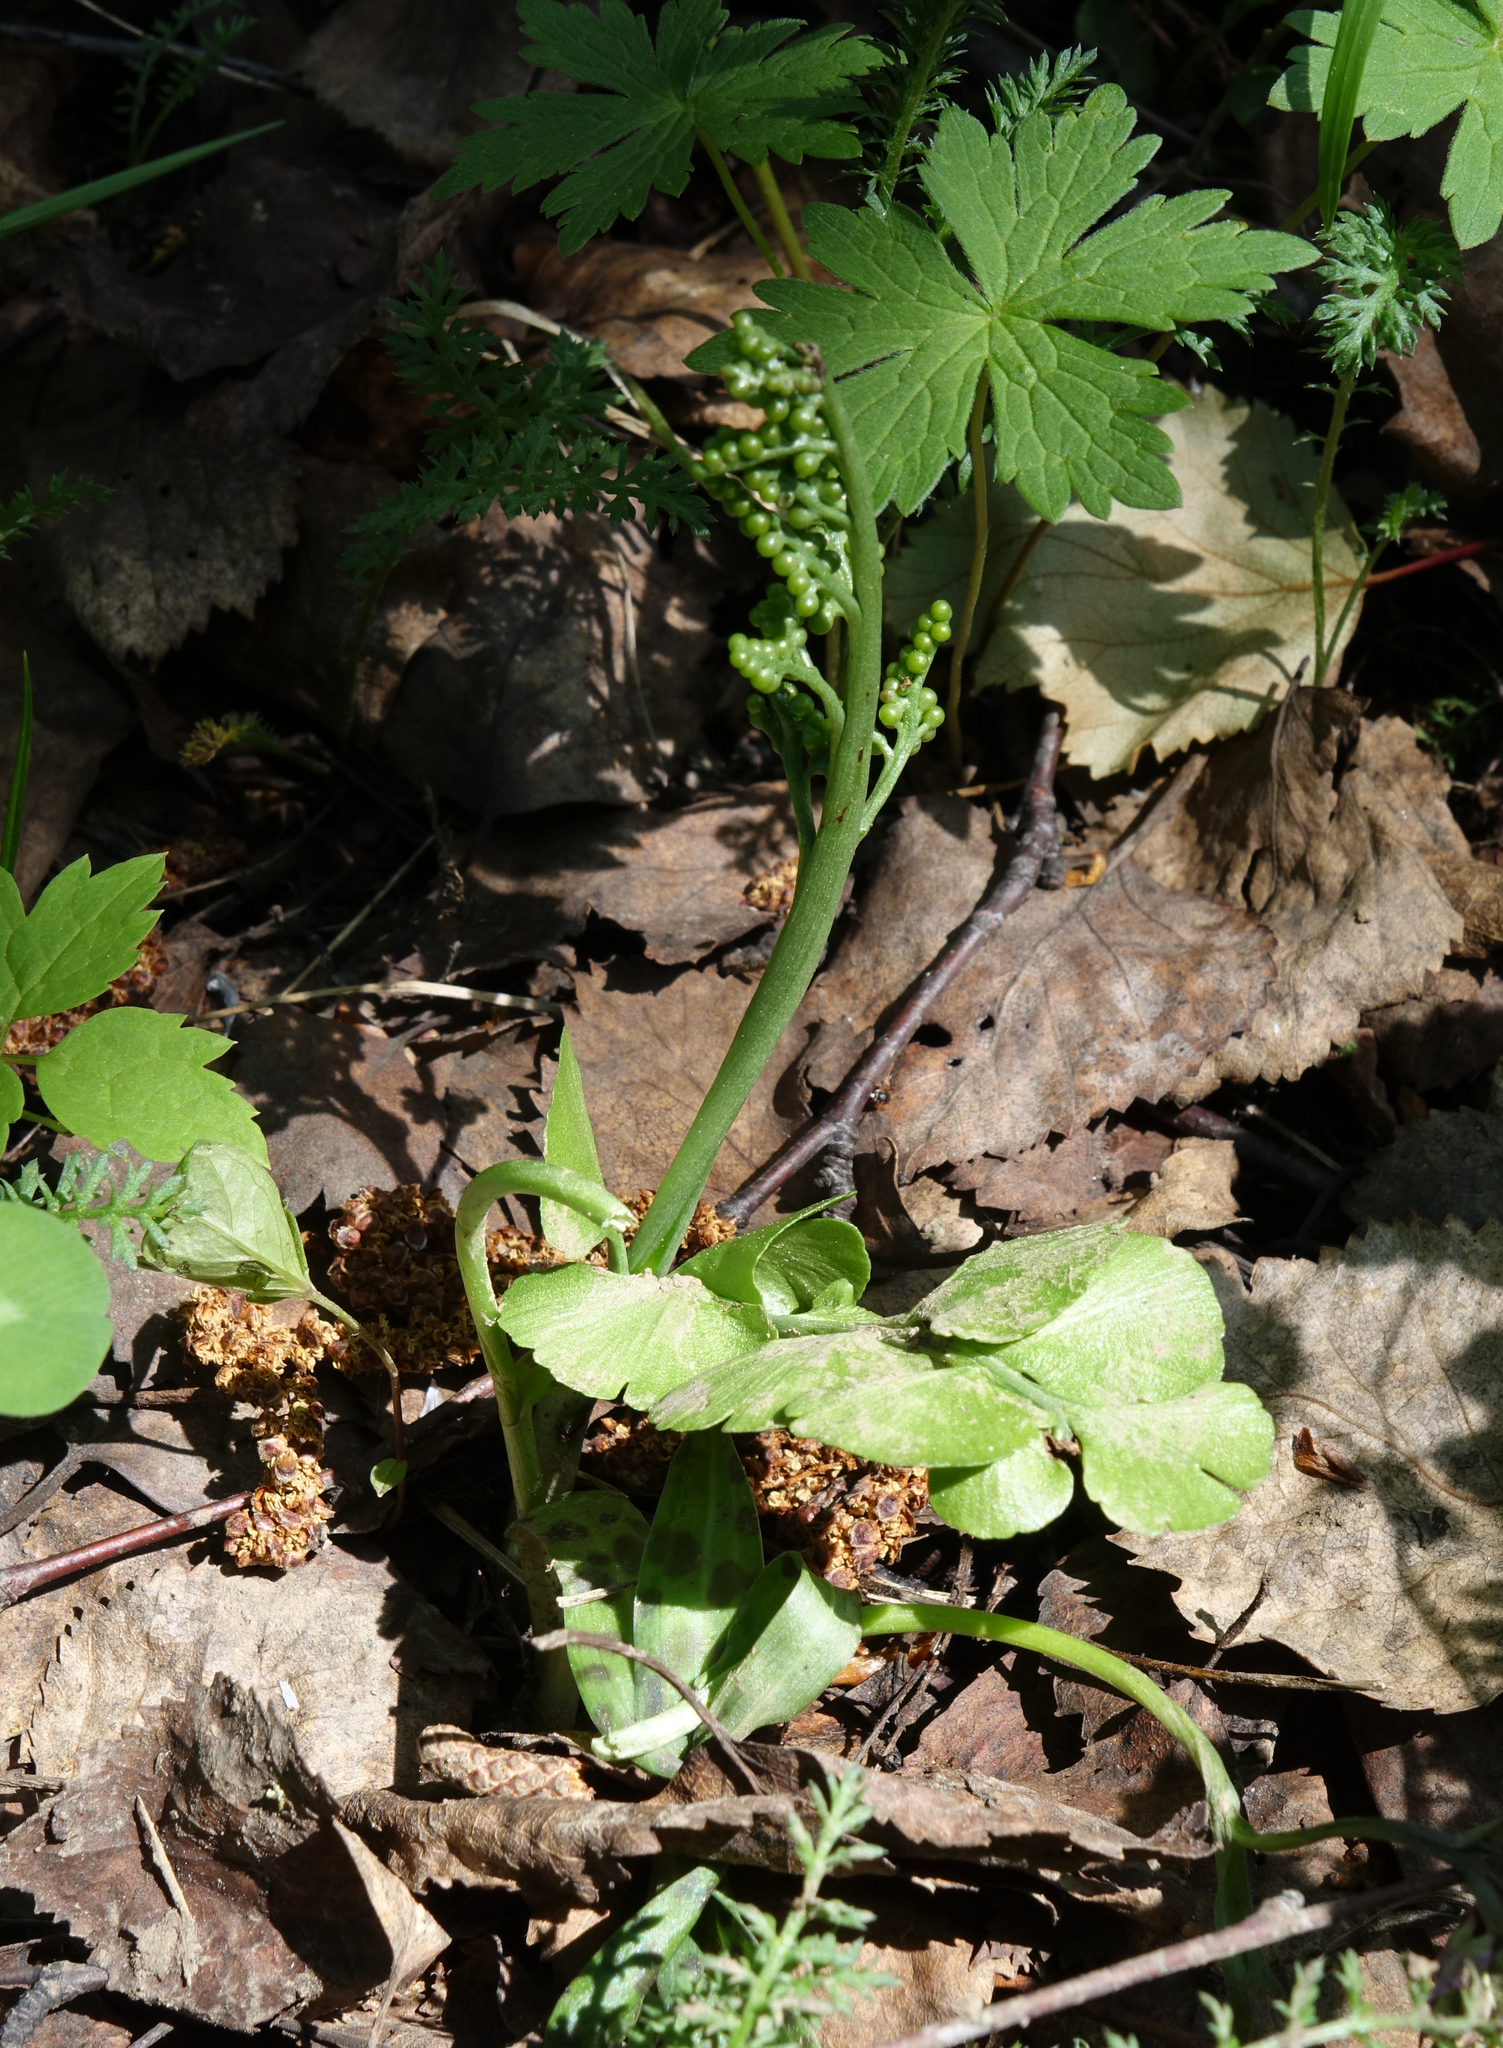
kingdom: Plantae
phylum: Tracheophyta
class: Polypodiopsida
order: Ophioglossales
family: Ophioglossaceae
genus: Botrychium
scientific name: Botrychium lunaria
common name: Moonwort
